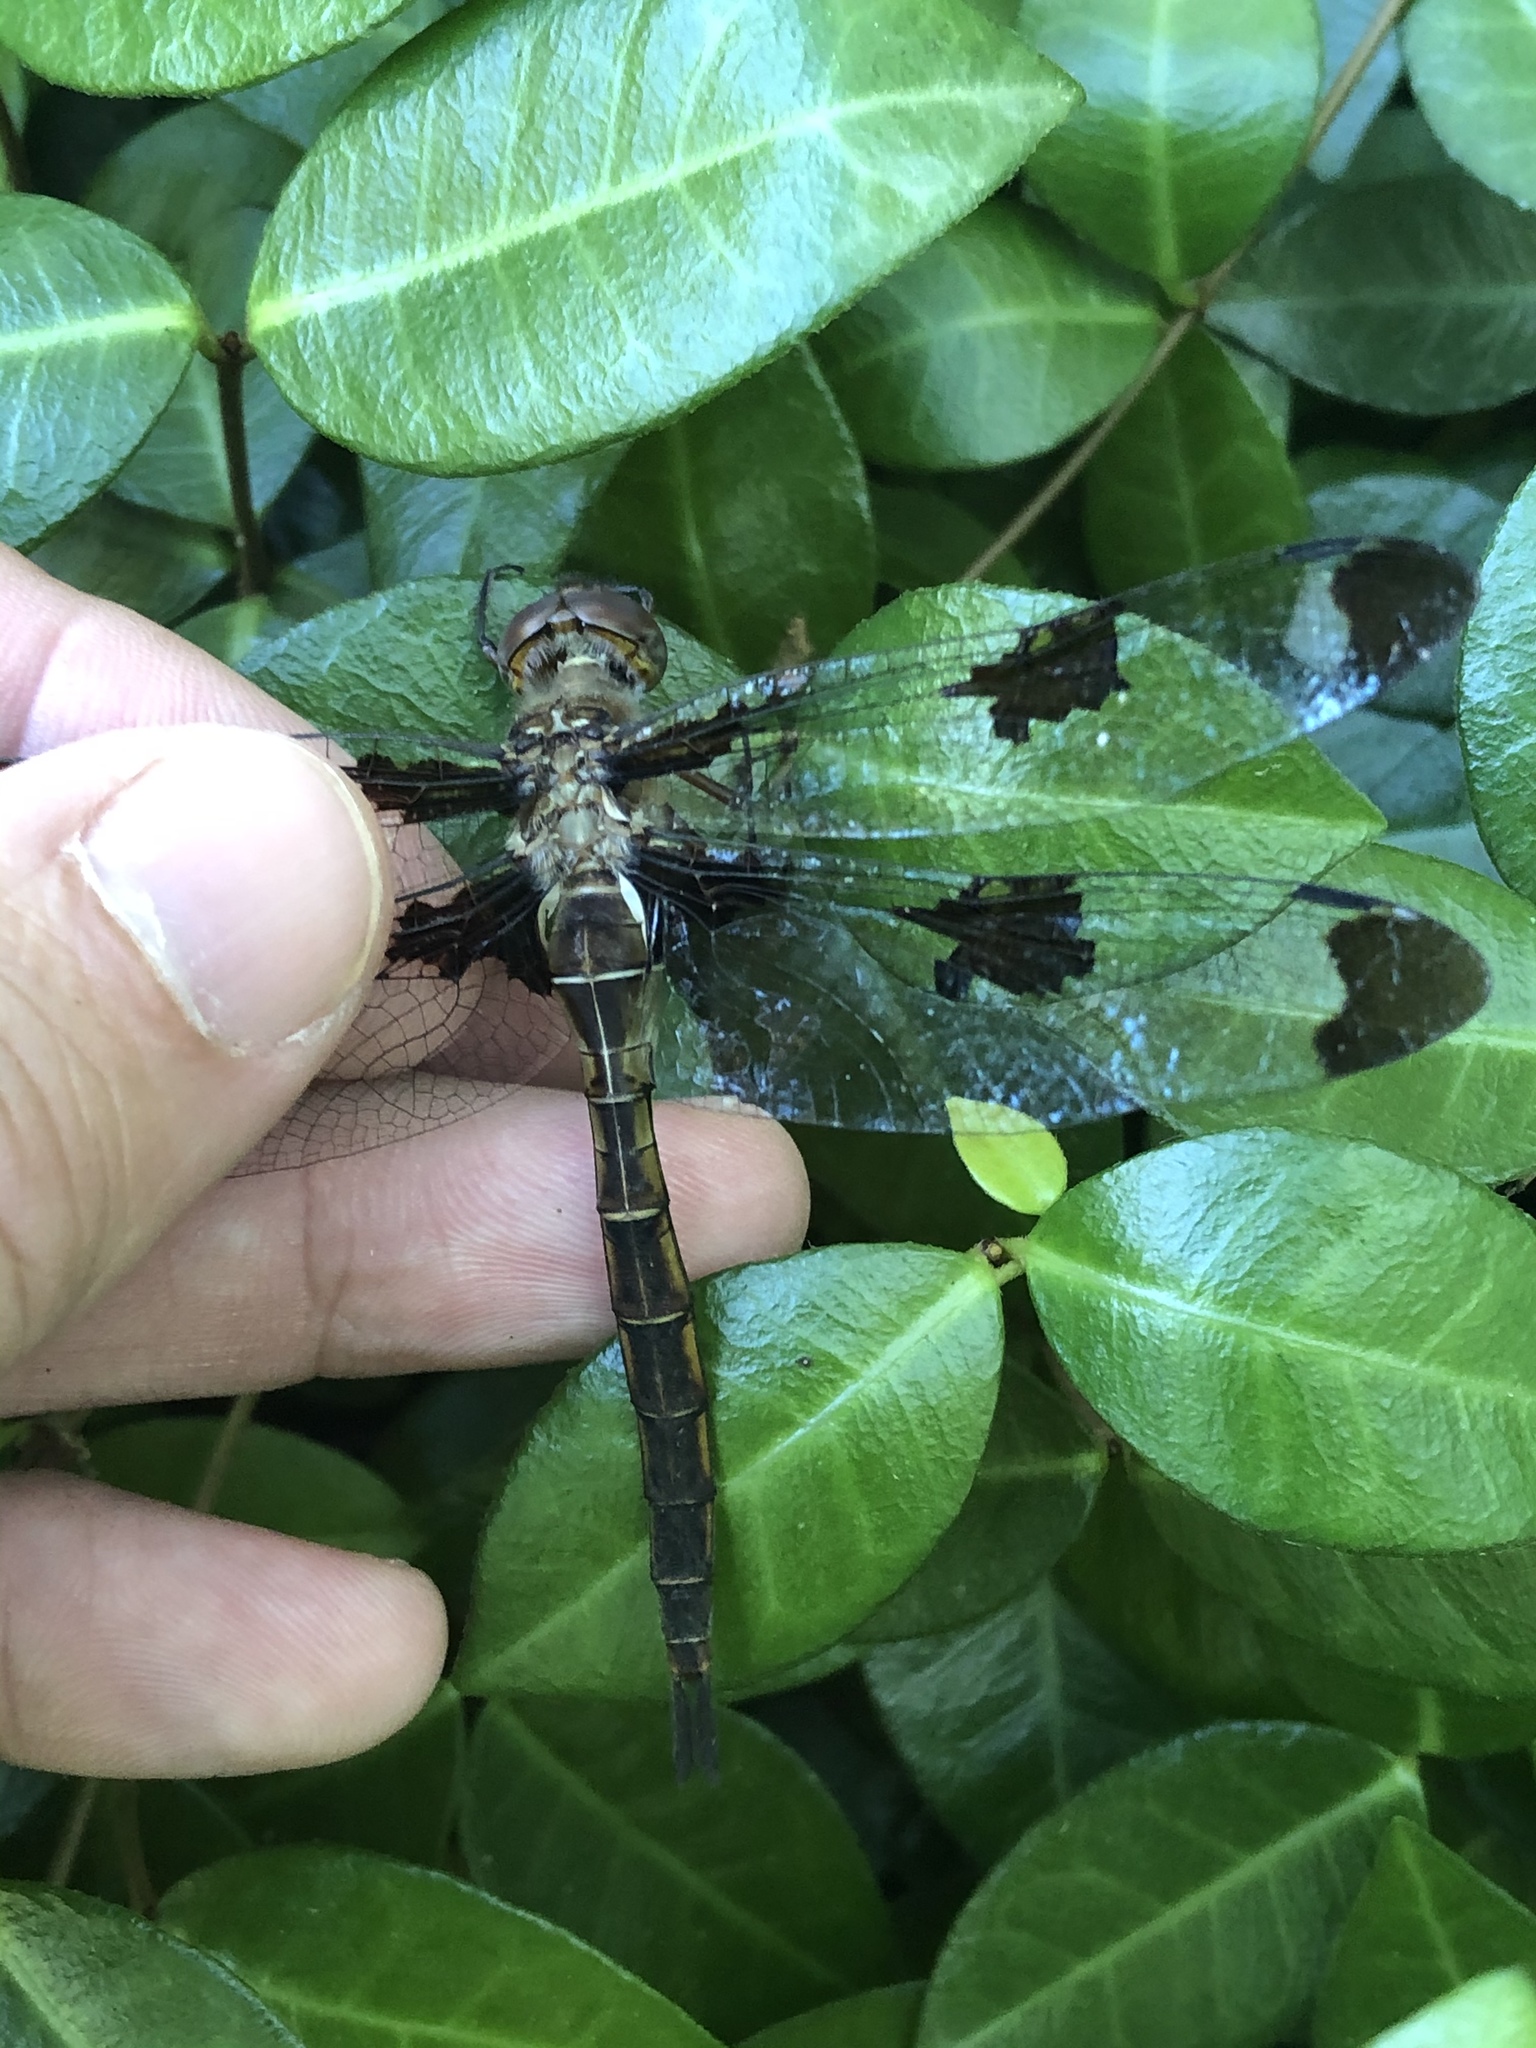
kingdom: Animalia
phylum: Arthropoda
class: Insecta
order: Odonata
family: Corduliidae
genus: Epitheca
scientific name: Epitheca princeps
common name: Prince baskettail
